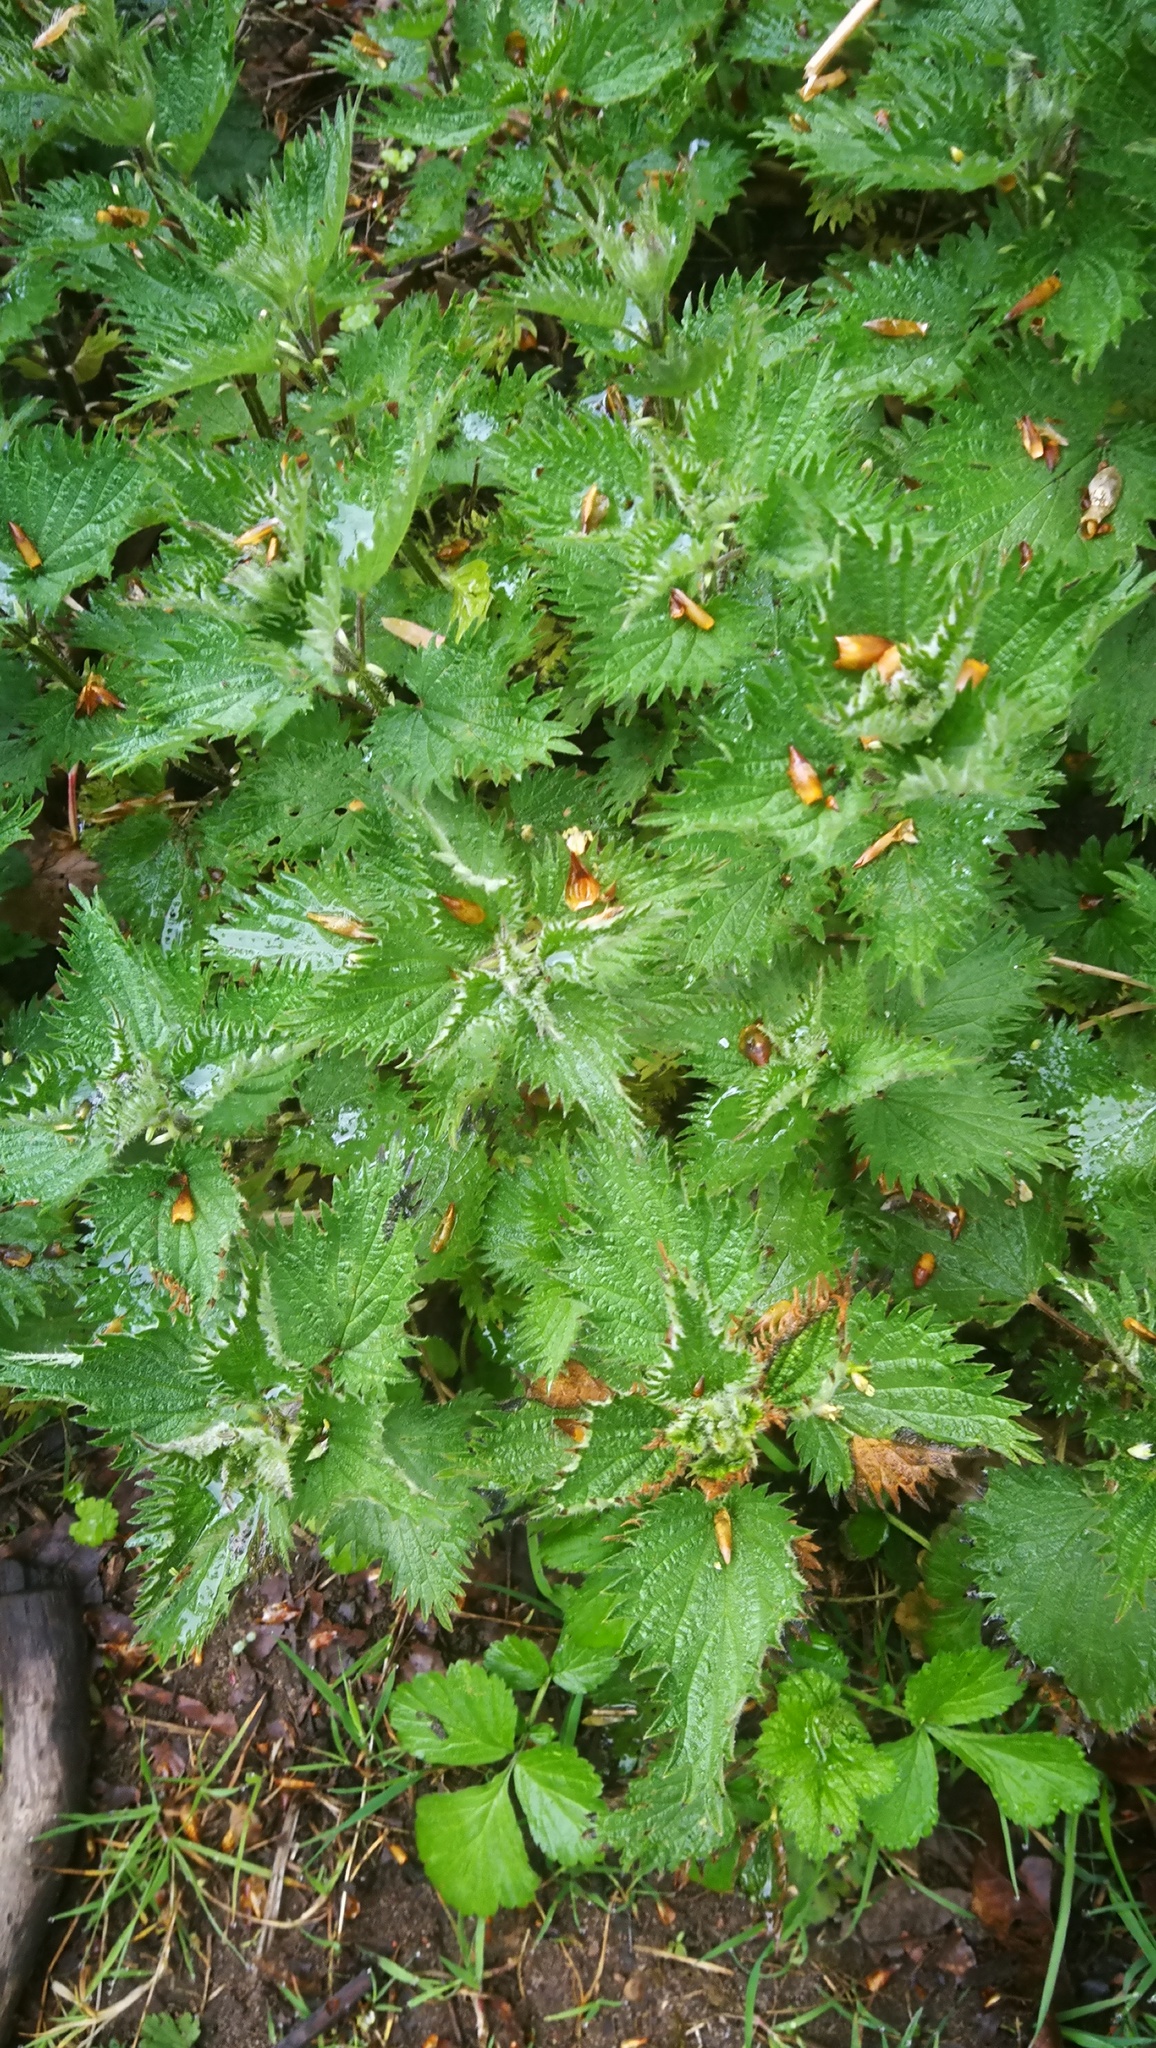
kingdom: Plantae
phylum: Tracheophyta
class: Magnoliopsida
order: Rosales
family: Urticaceae
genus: Urtica
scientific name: Urtica dioica
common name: Common nettle
